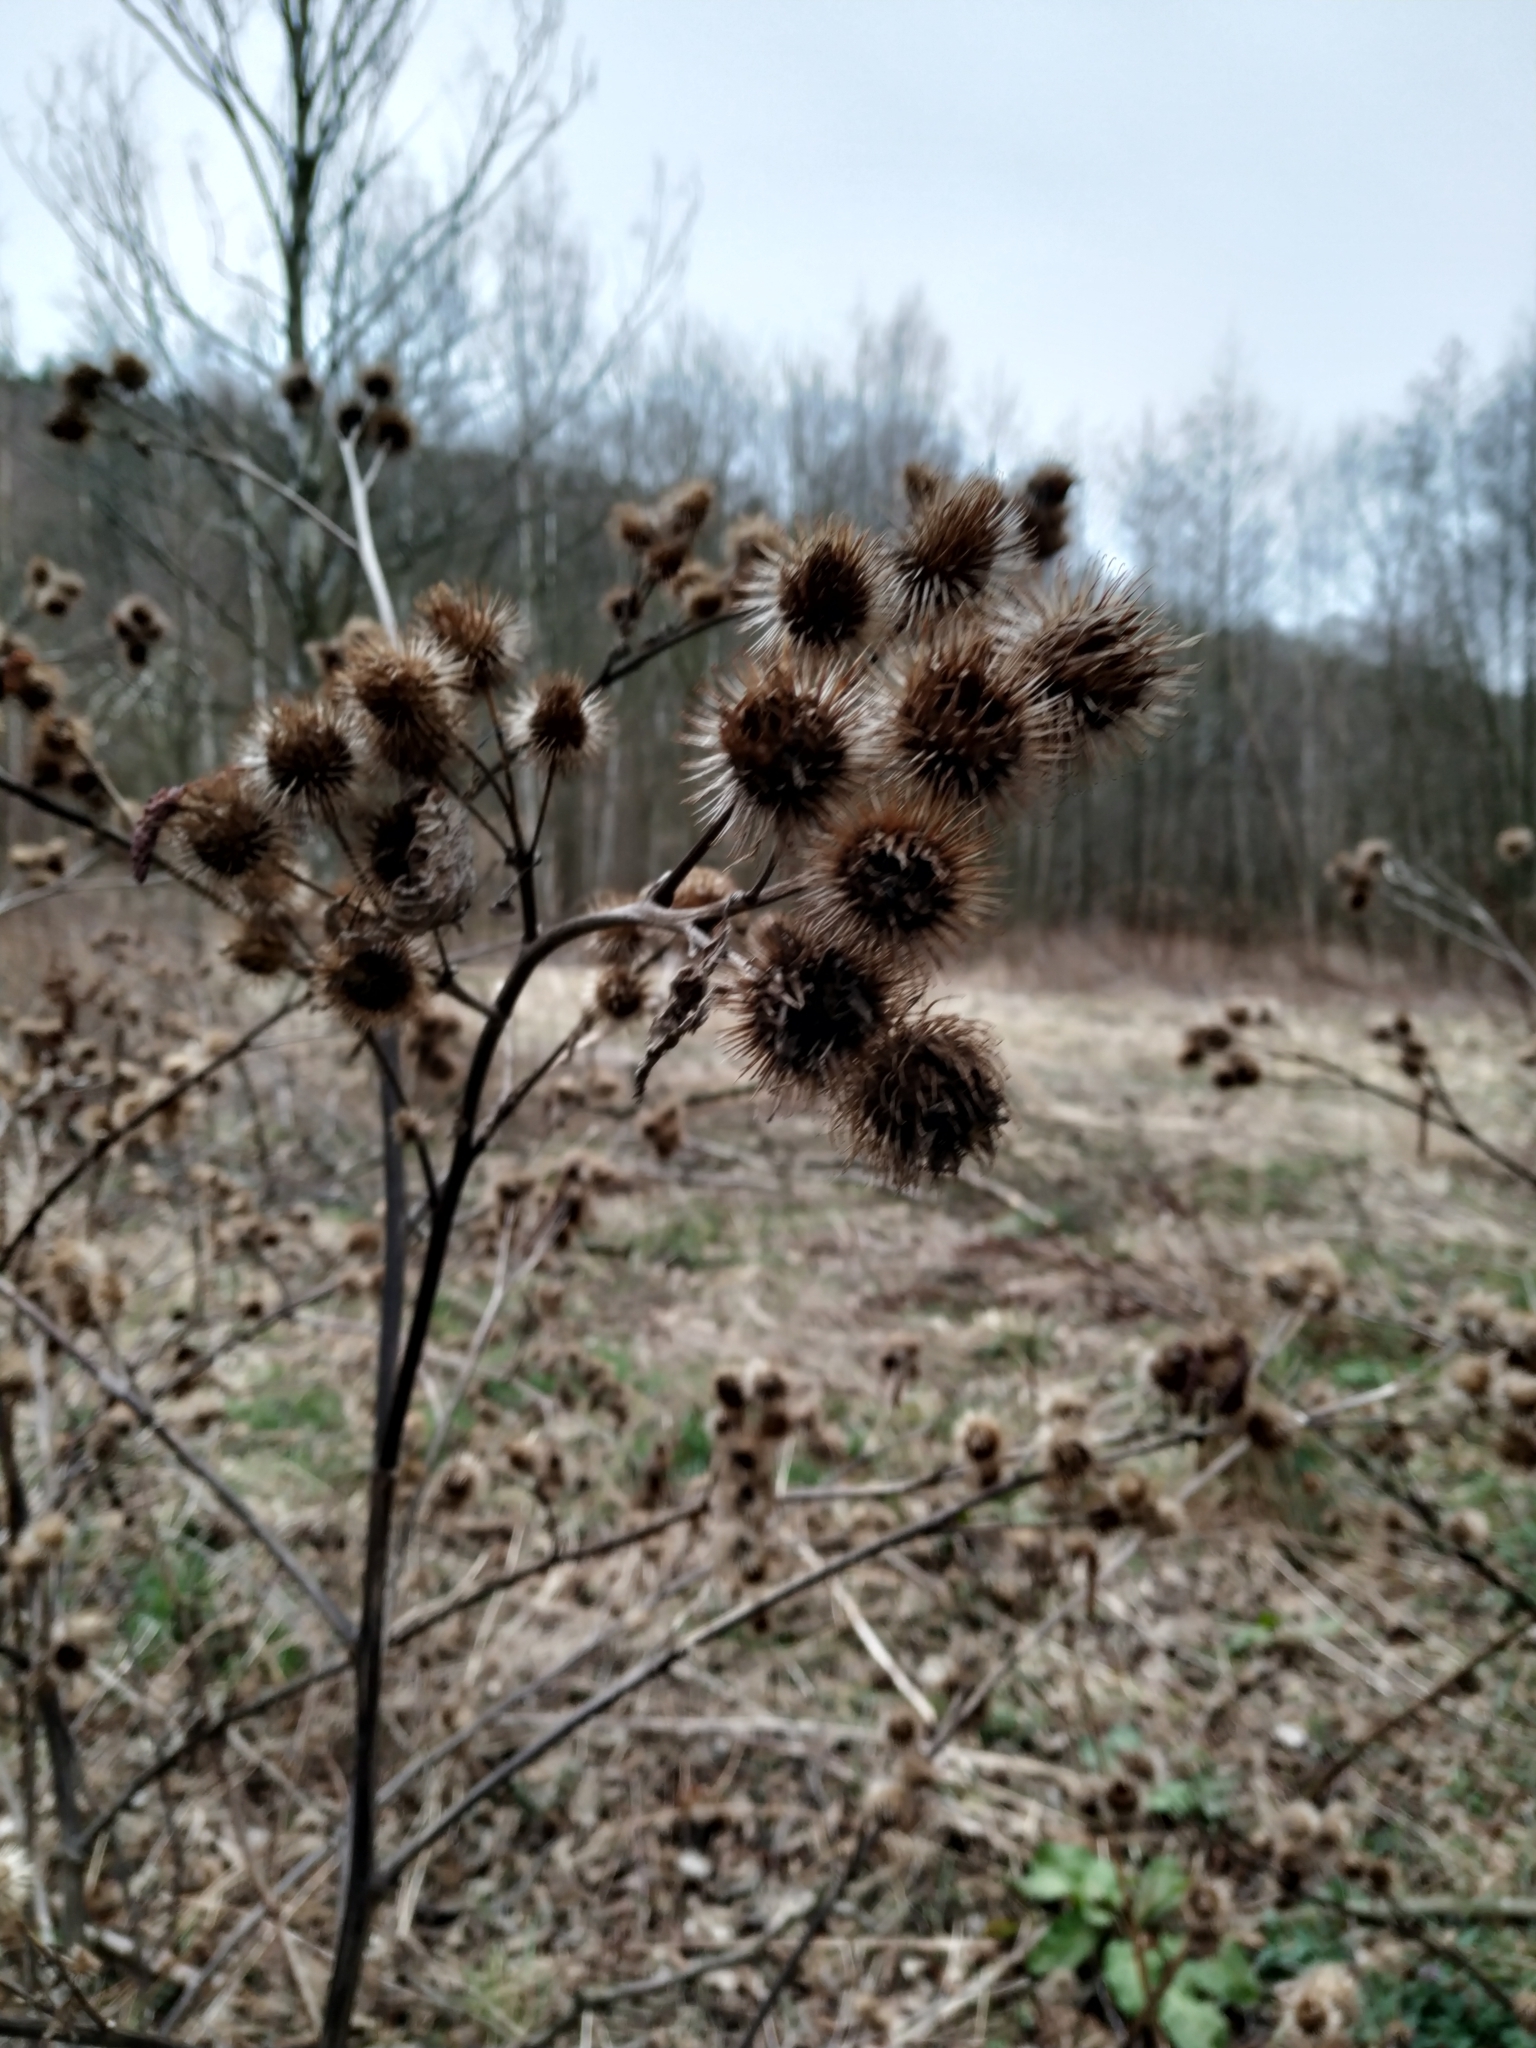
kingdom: Plantae
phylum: Tracheophyta
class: Magnoliopsida
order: Asterales
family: Asteraceae
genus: Arctium
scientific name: Arctium lappa
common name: Greater burdock
